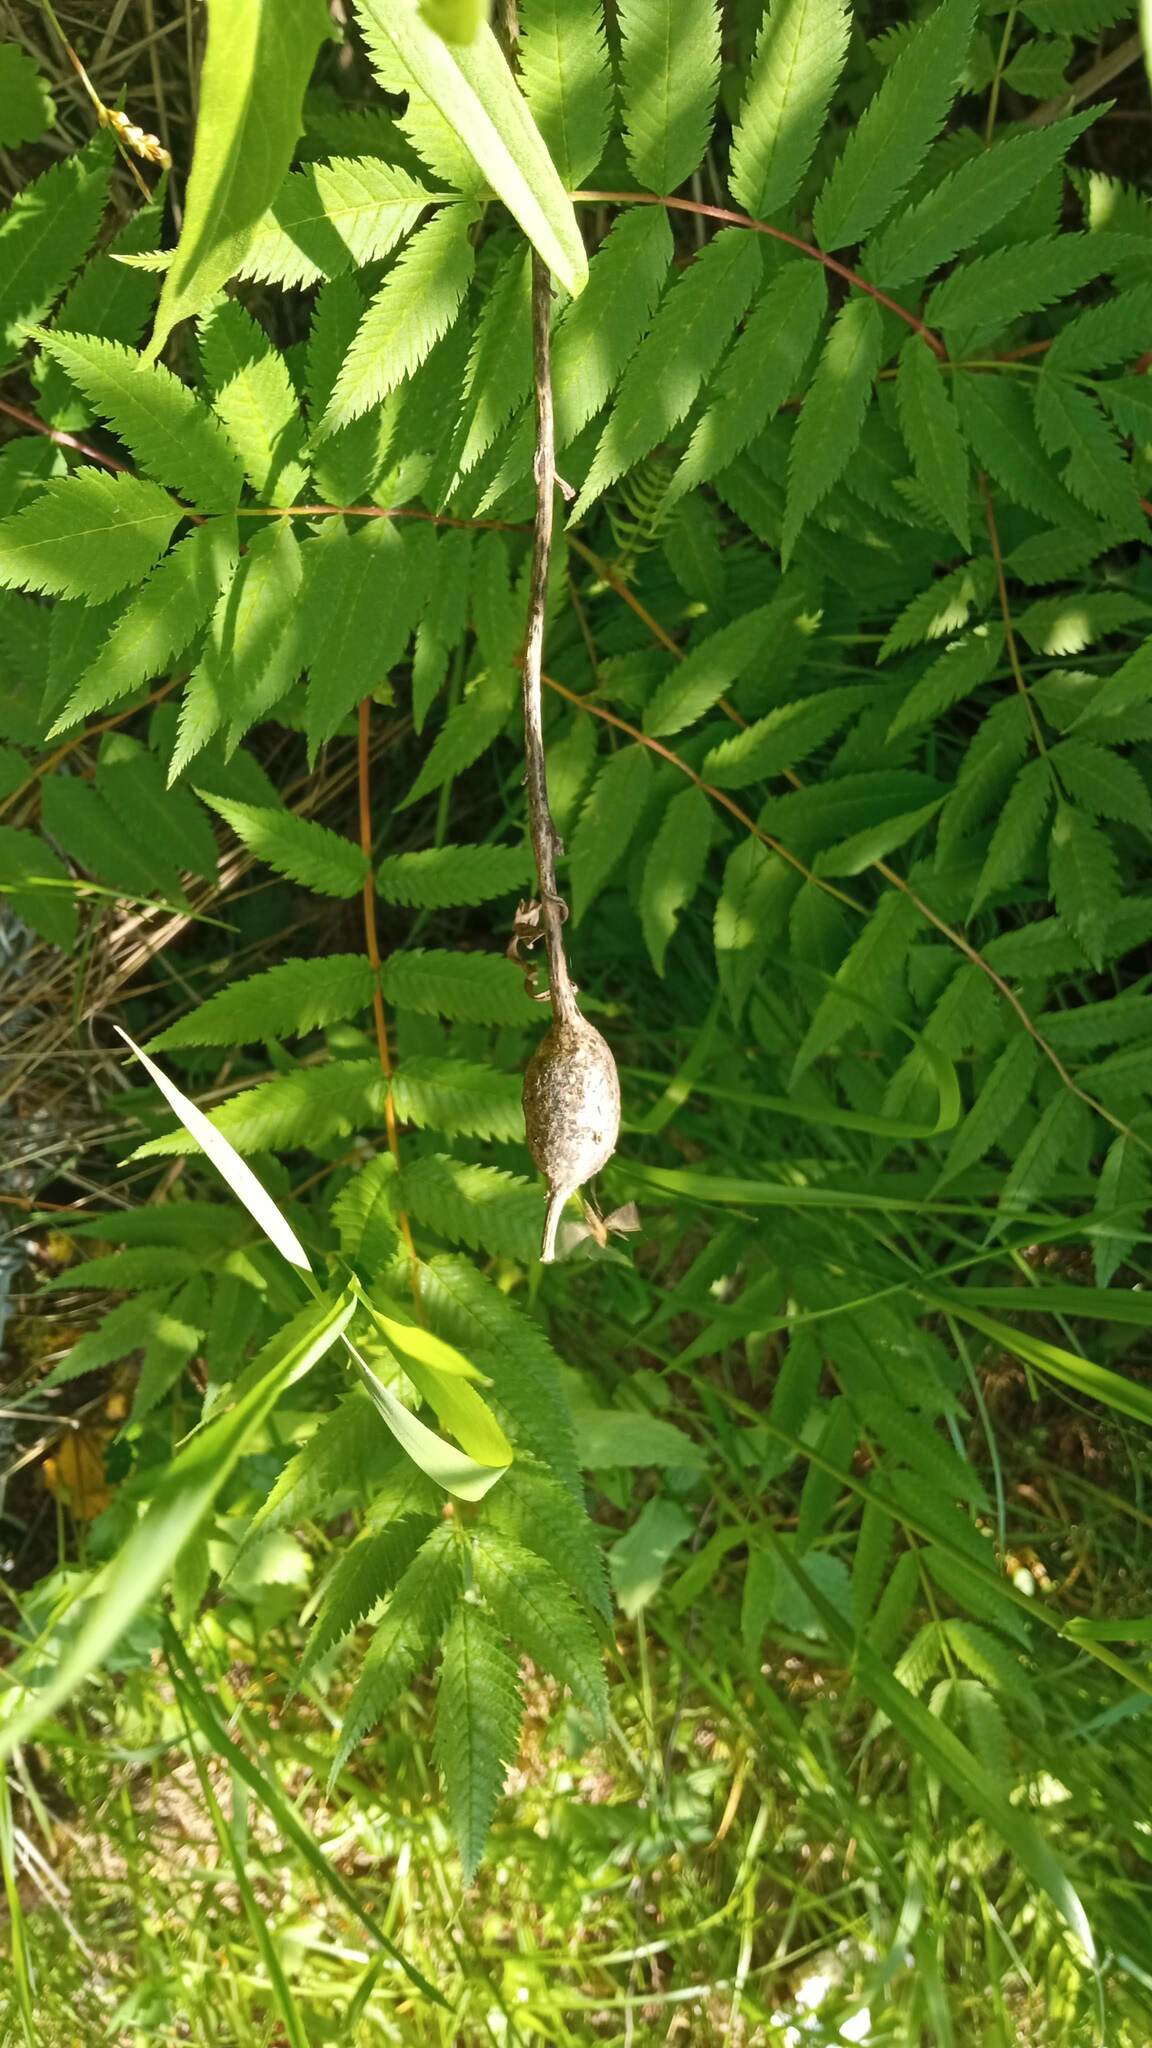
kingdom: Plantae
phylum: Tracheophyta
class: Magnoliopsida
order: Rosales
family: Rosaceae
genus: Sorbaria
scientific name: Sorbaria sorbifolia
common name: False spiraea
